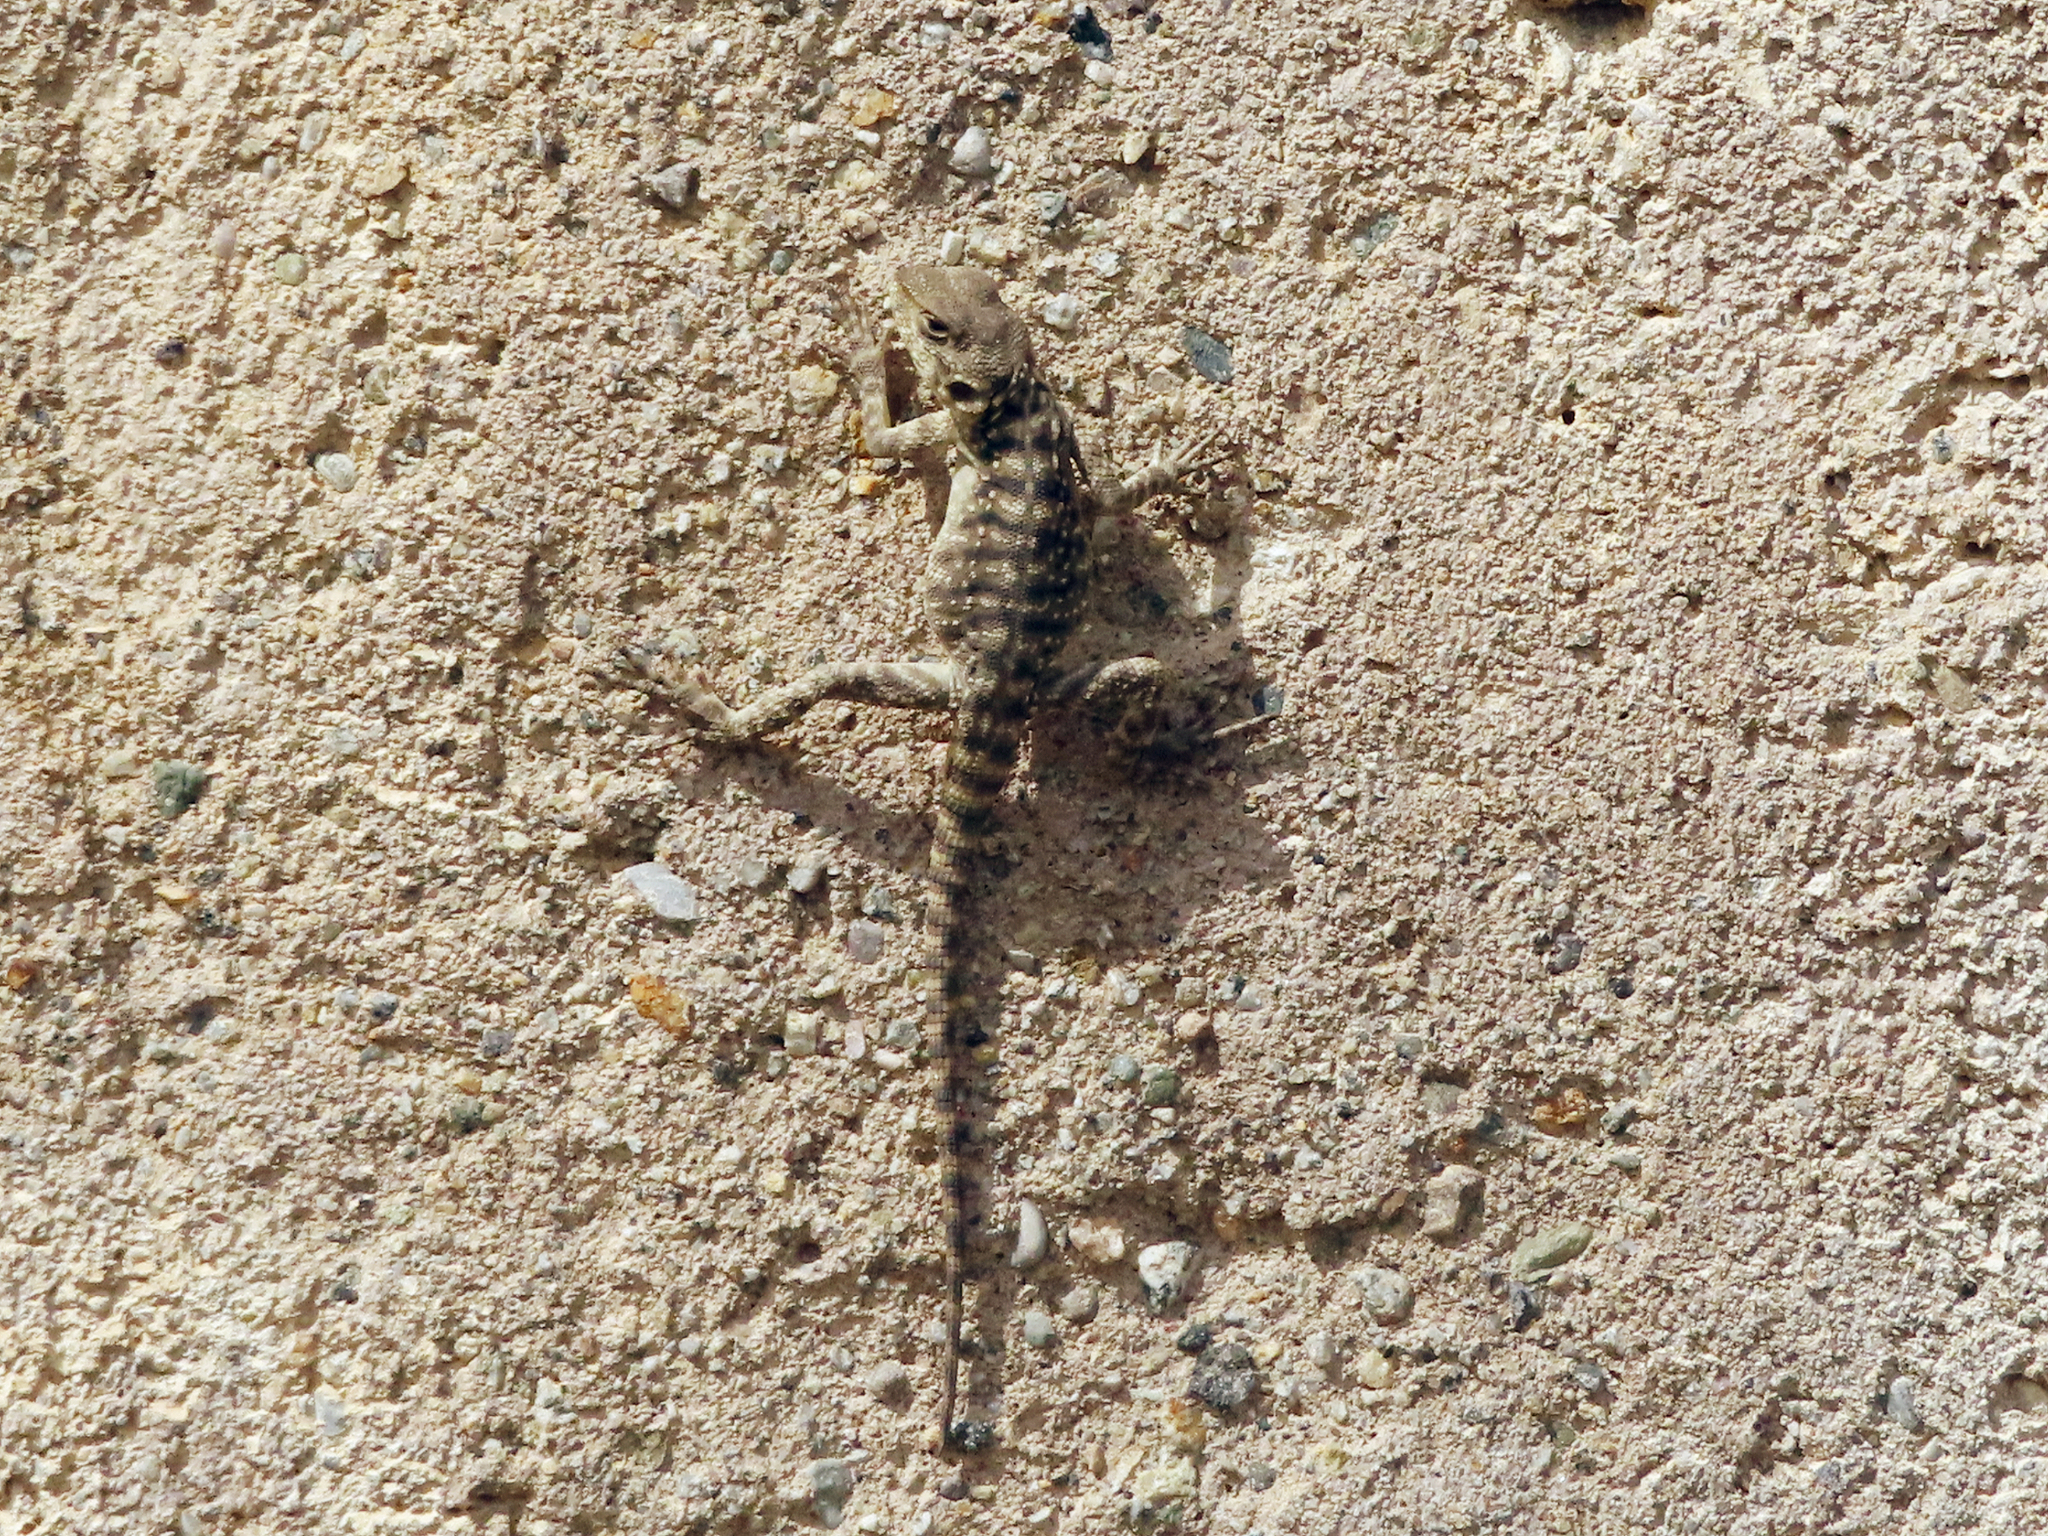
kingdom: Animalia
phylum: Chordata
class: Squamata
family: Agamidae
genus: Paralaudakia
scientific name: Paralaudakia caucasia
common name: Caucasian agama
